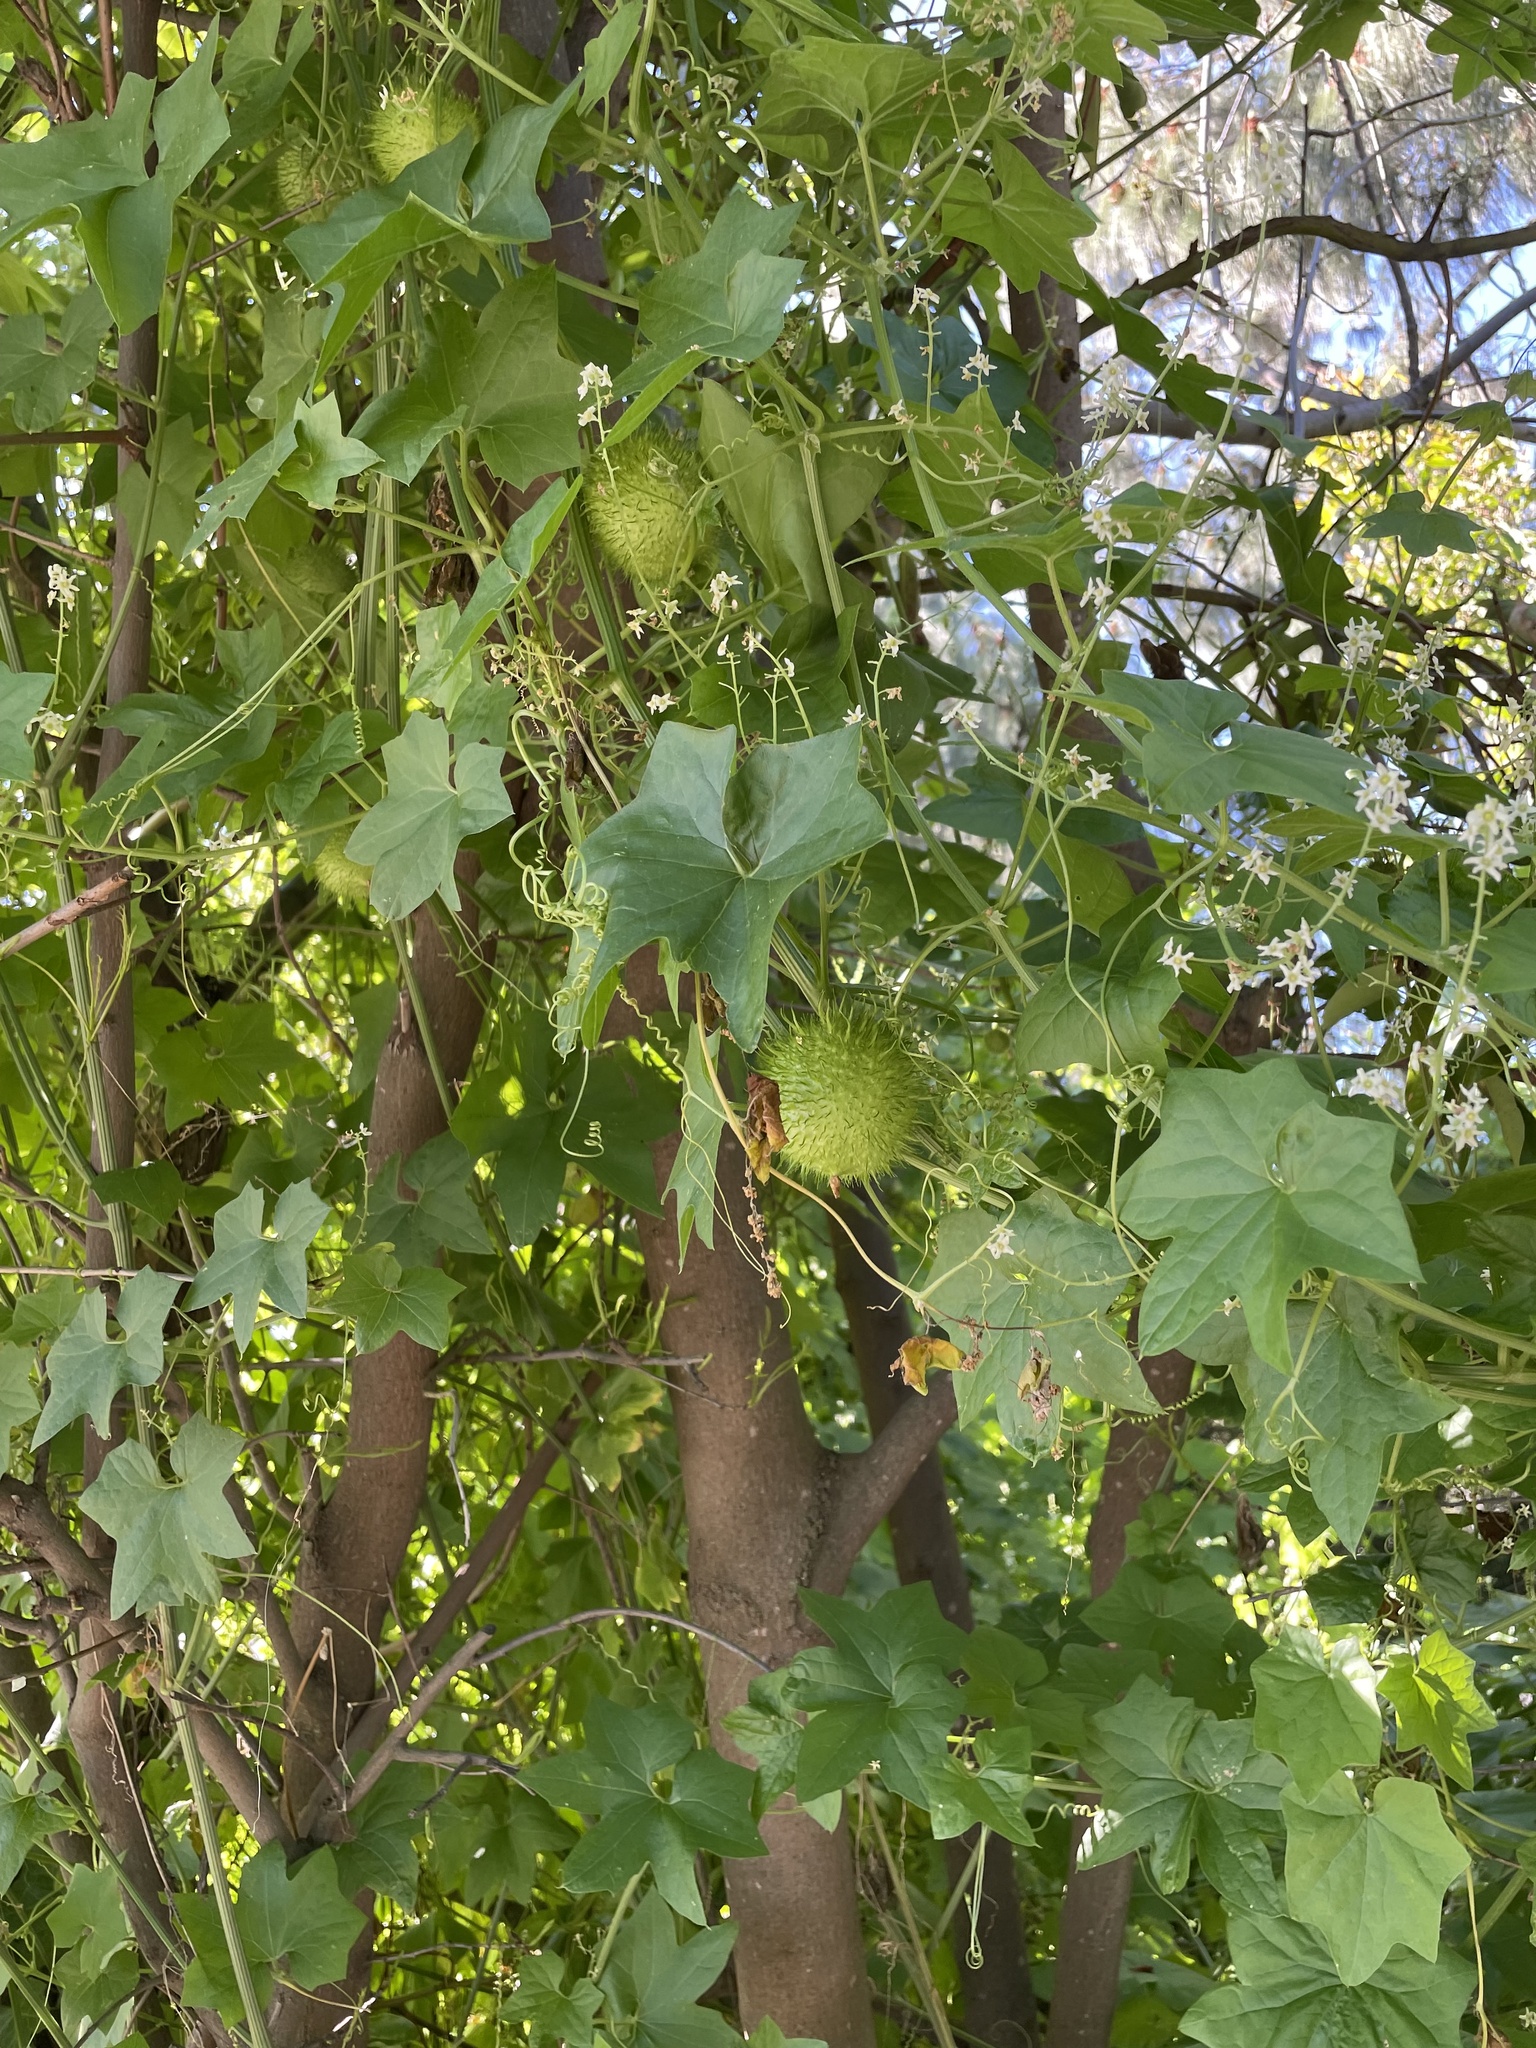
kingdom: Plantae
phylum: Tracheophyta
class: Magnoliopsida
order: Cucurbitales
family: Cucurbitaceae
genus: Marah
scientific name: Marah fabacea
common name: California manroot
